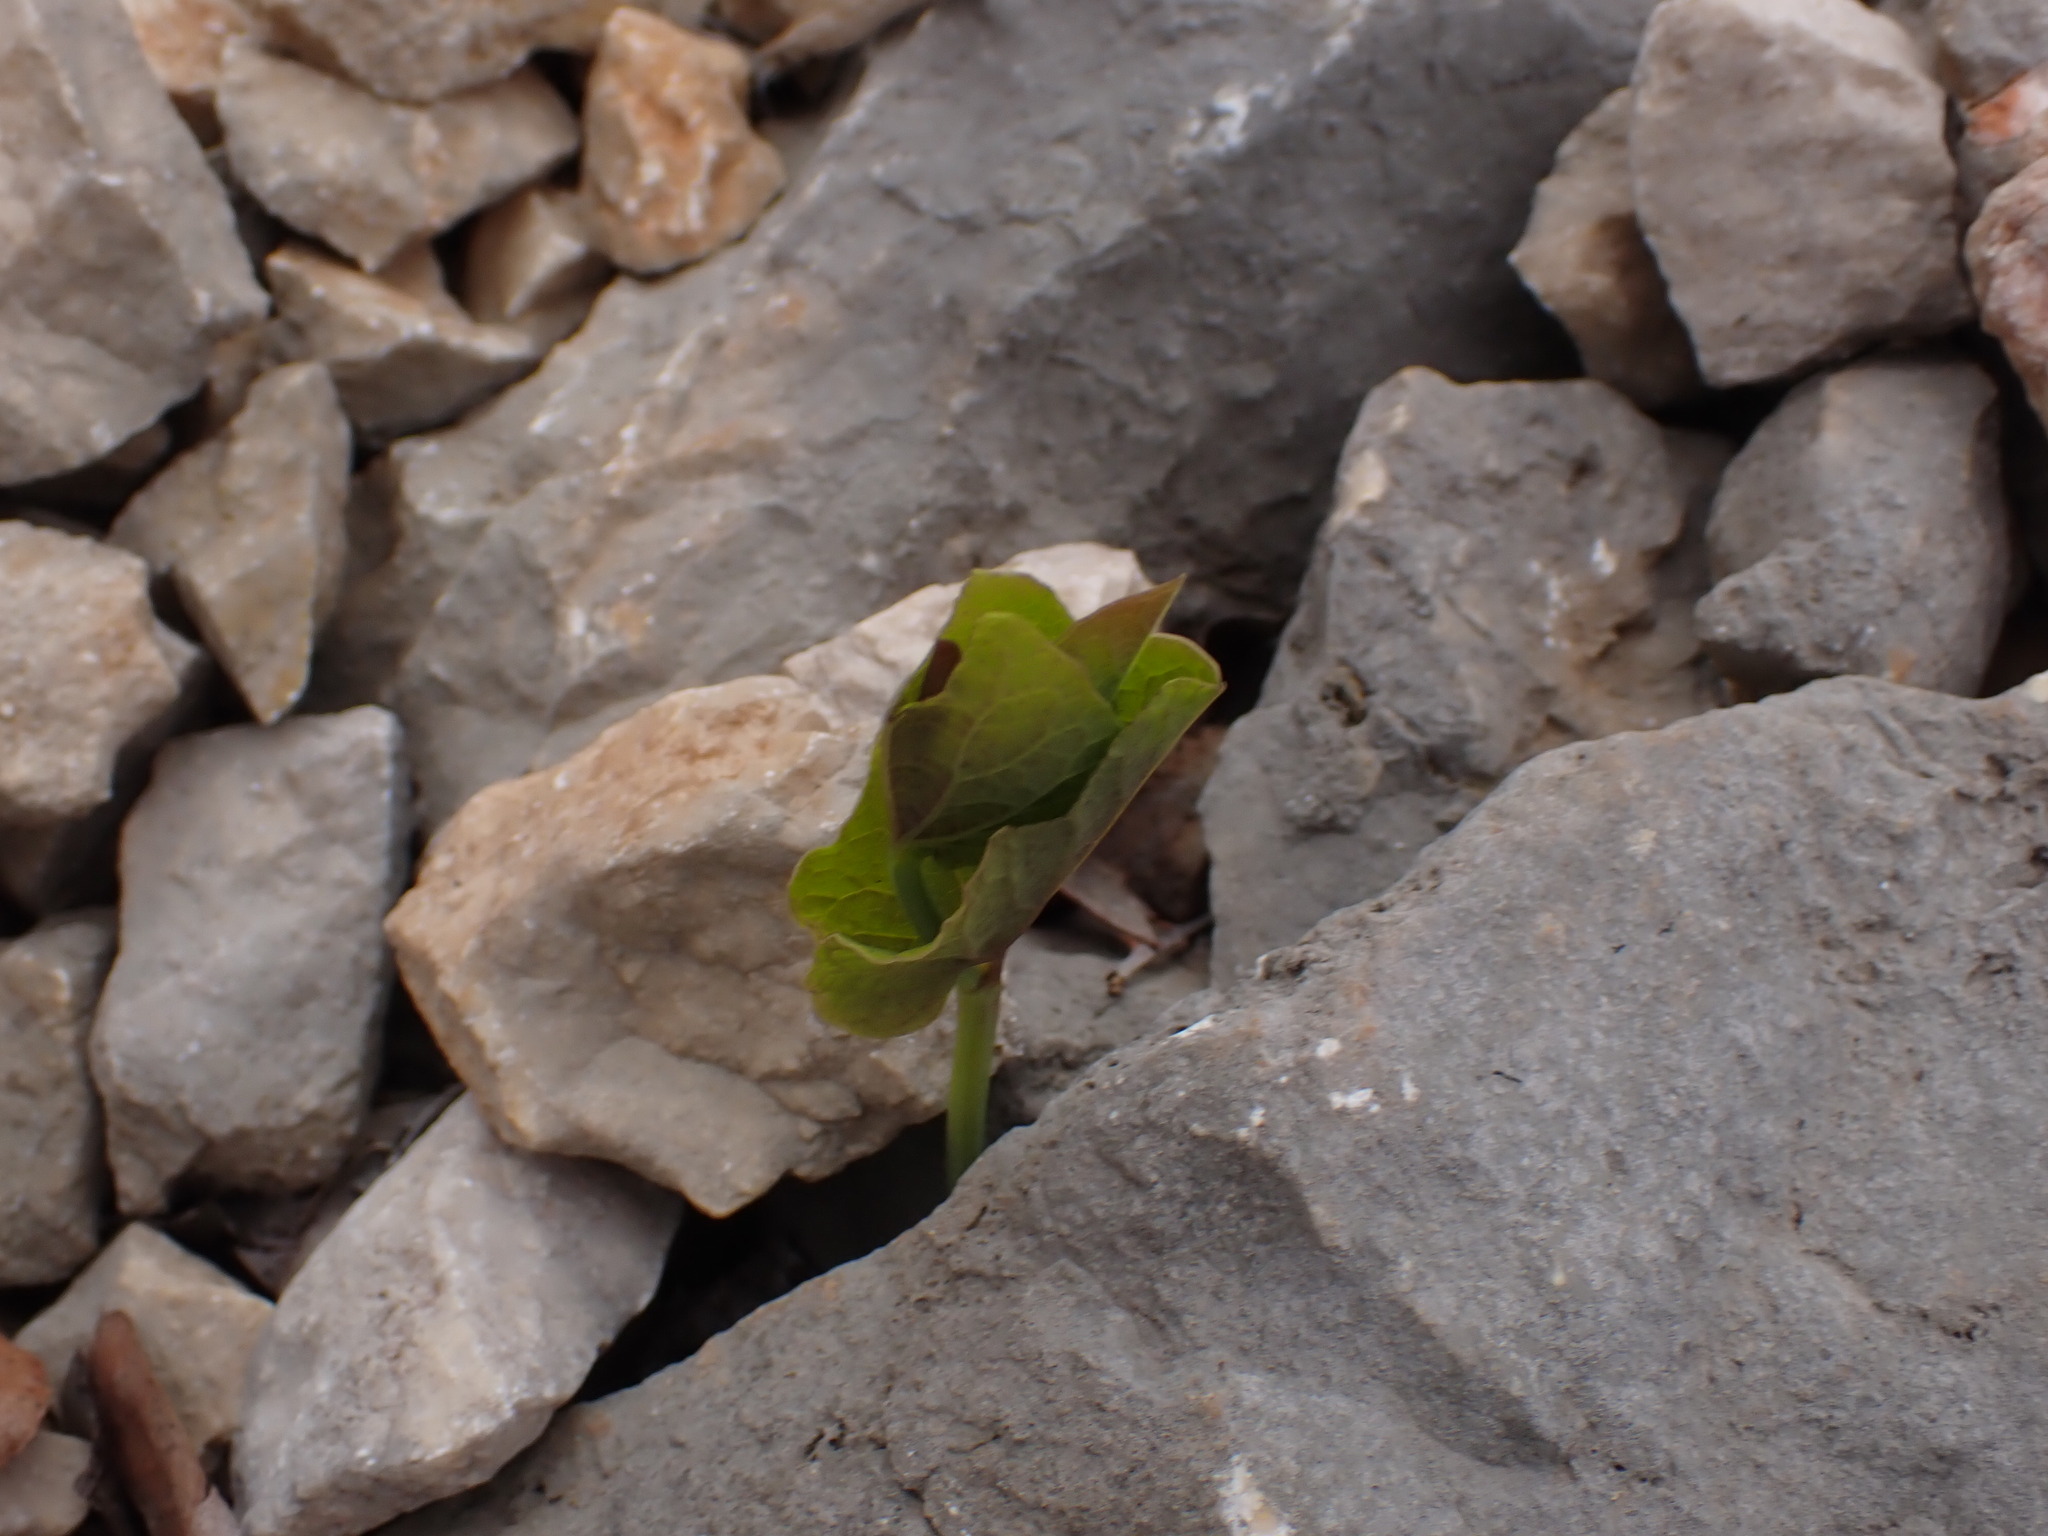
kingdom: Plantae
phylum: Tracheophyta
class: Magnoliopsida
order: Piperales
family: Aristolochiaceae
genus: Aristolochia
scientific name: Aristolochia rotunda
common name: Smearwort
